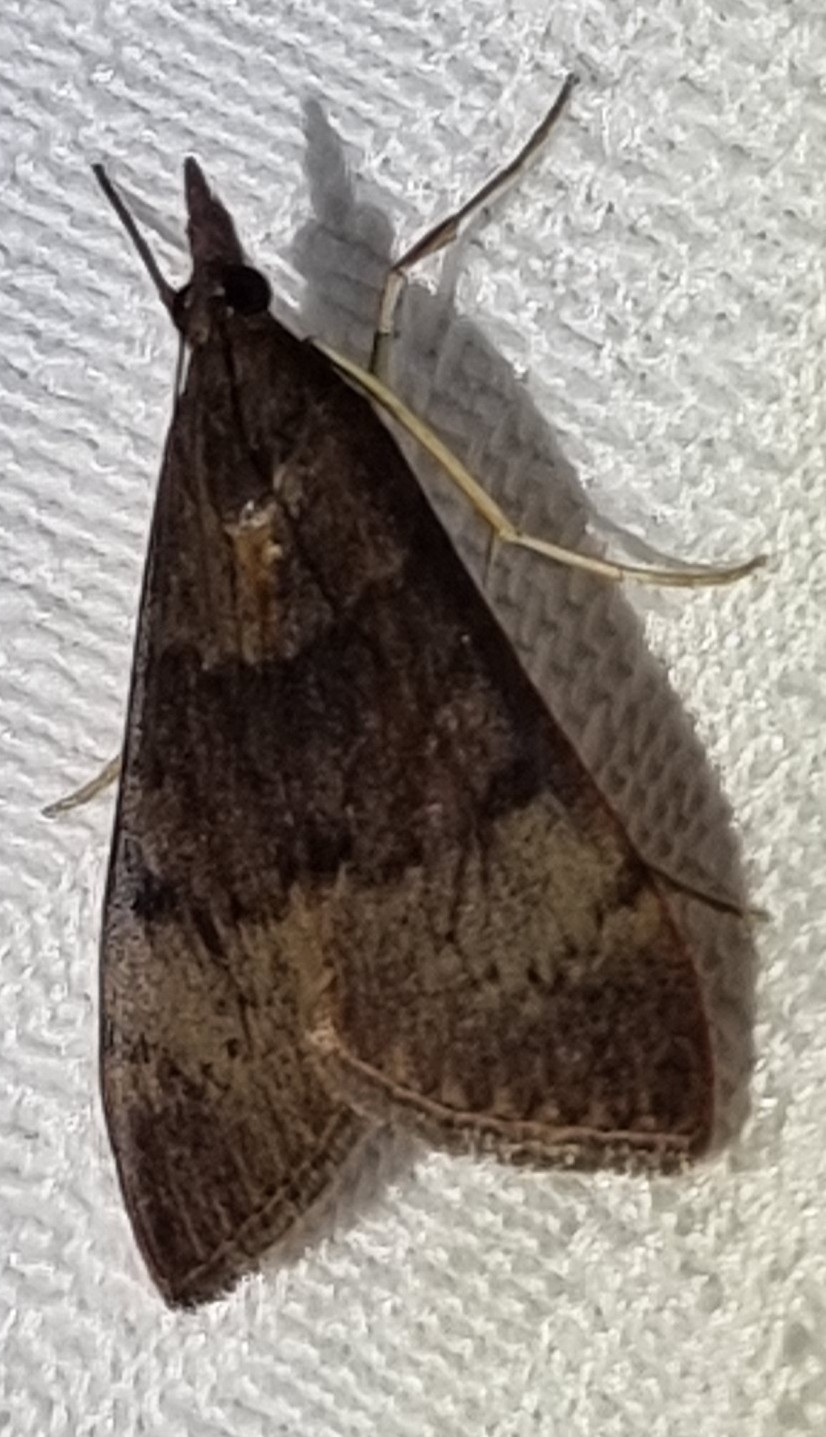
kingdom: Animalia
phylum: Arthropoda
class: Insecta
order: Lepidoptera
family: Crambidae
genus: Uresiphita
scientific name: Uresiphita ornithopteralis
